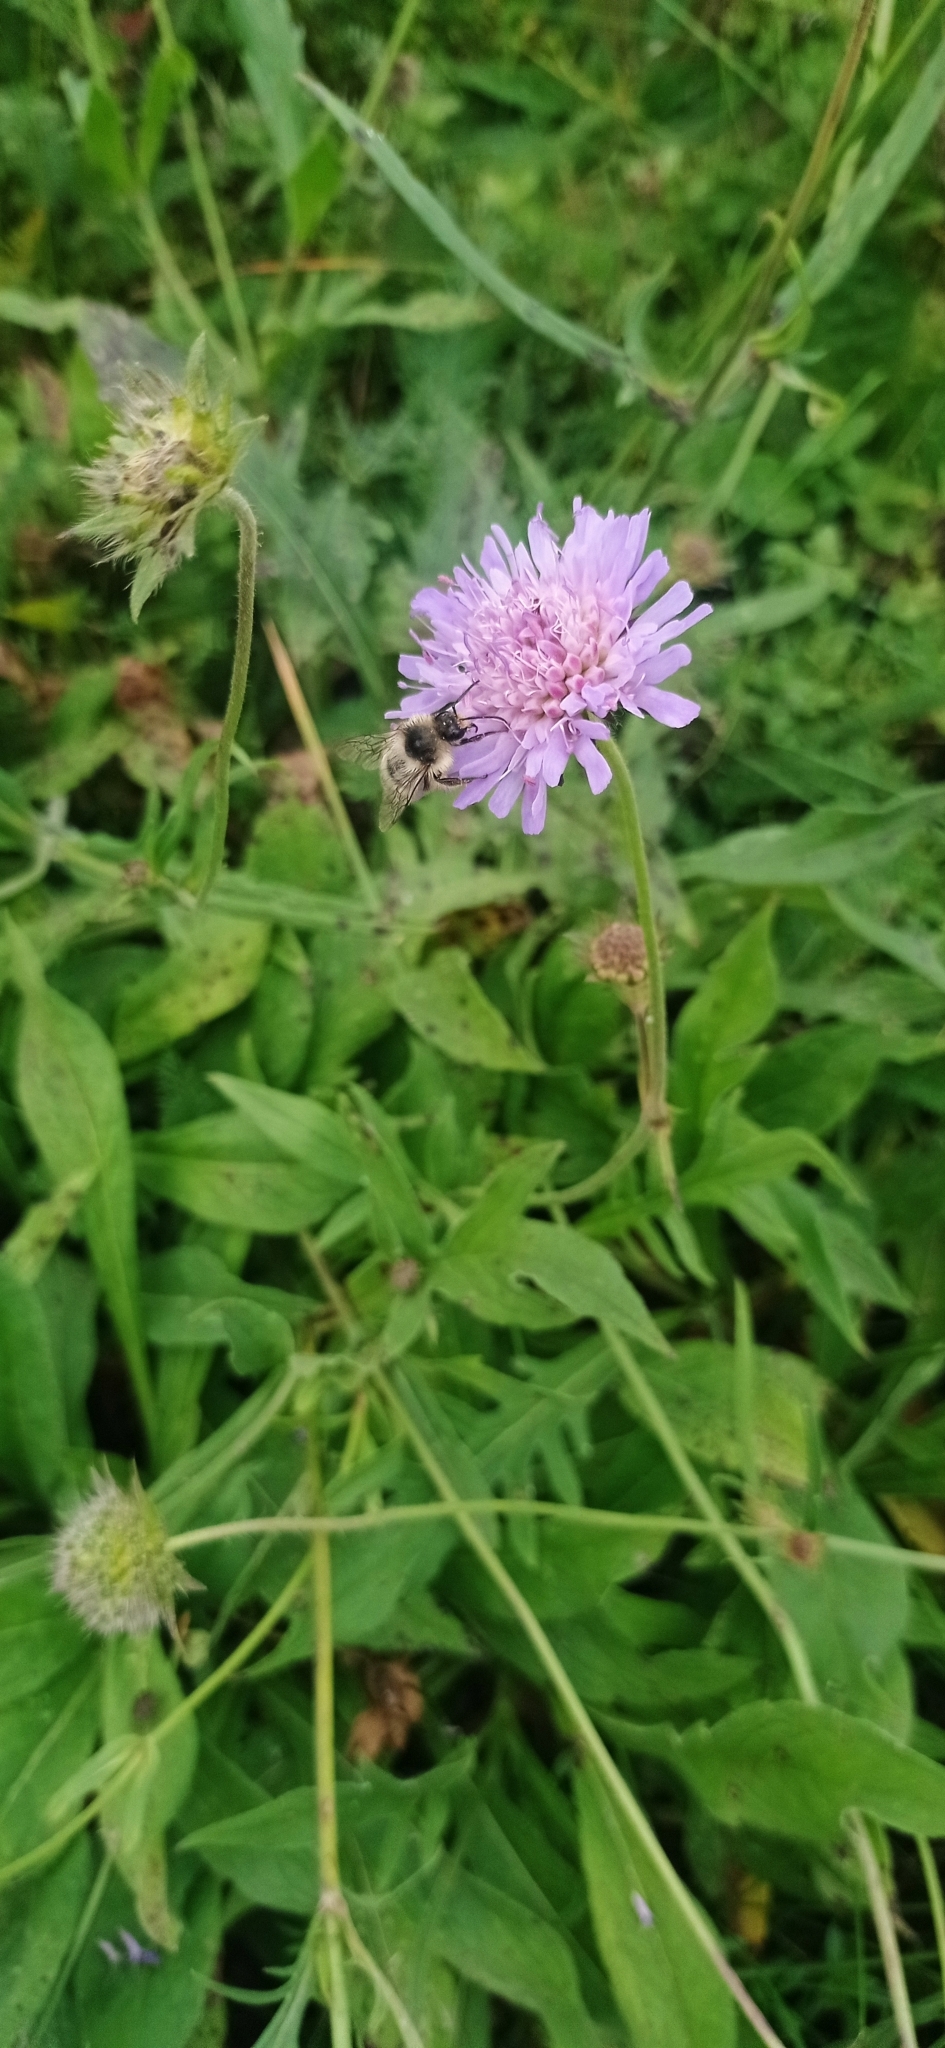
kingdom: Plantae
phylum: Tracheophyta
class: Magnoliopsida
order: Dipsacales
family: Caprifoliaceae
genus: Knautia
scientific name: Knautia arvensis
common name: Field scabiosa
